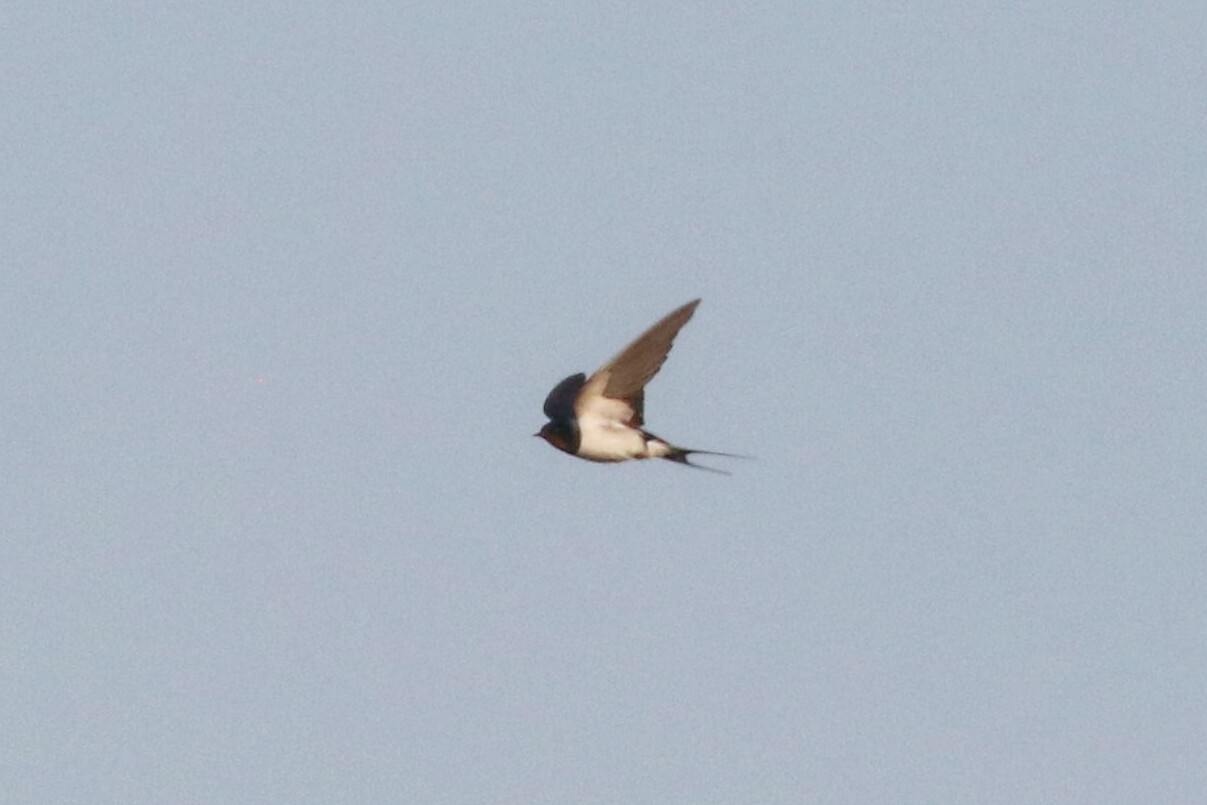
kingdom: Animalia
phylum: Chordata
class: Aves
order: Passeriformes
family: Hirundinidae
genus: Hirundo
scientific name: Hirundo rustica
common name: Barn swallow
